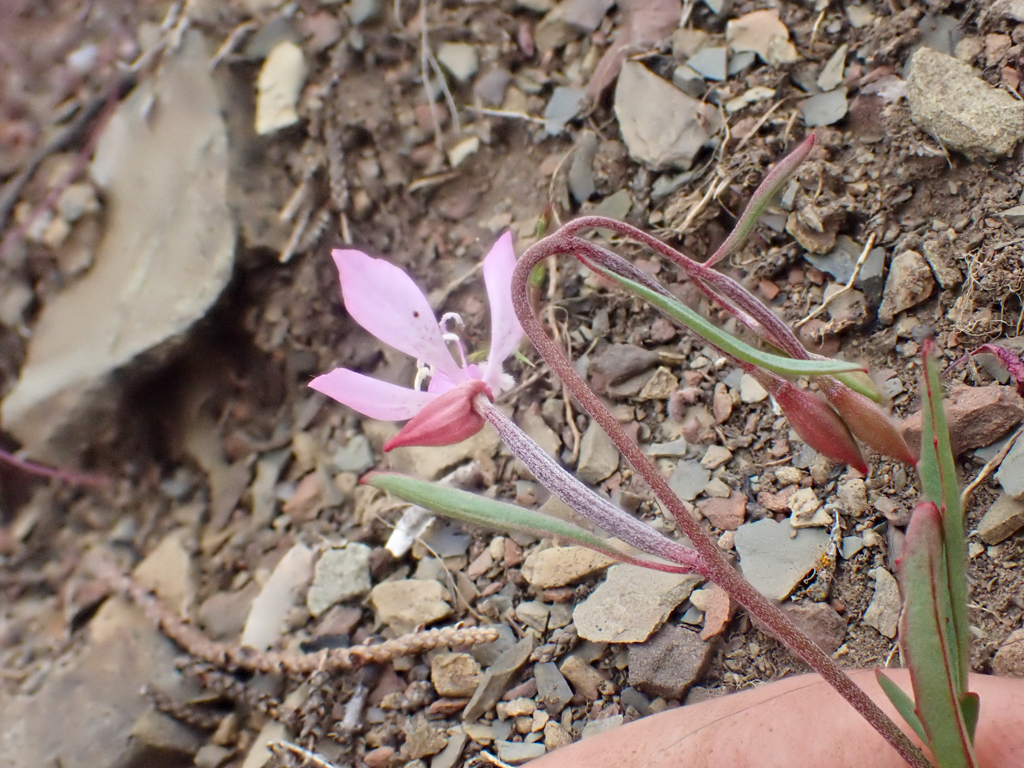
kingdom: Plantae
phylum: Tracheophyta
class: Magnoliopsida
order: Myrtales
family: Onagraceae
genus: Clarkia
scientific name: Clarkia modesta
